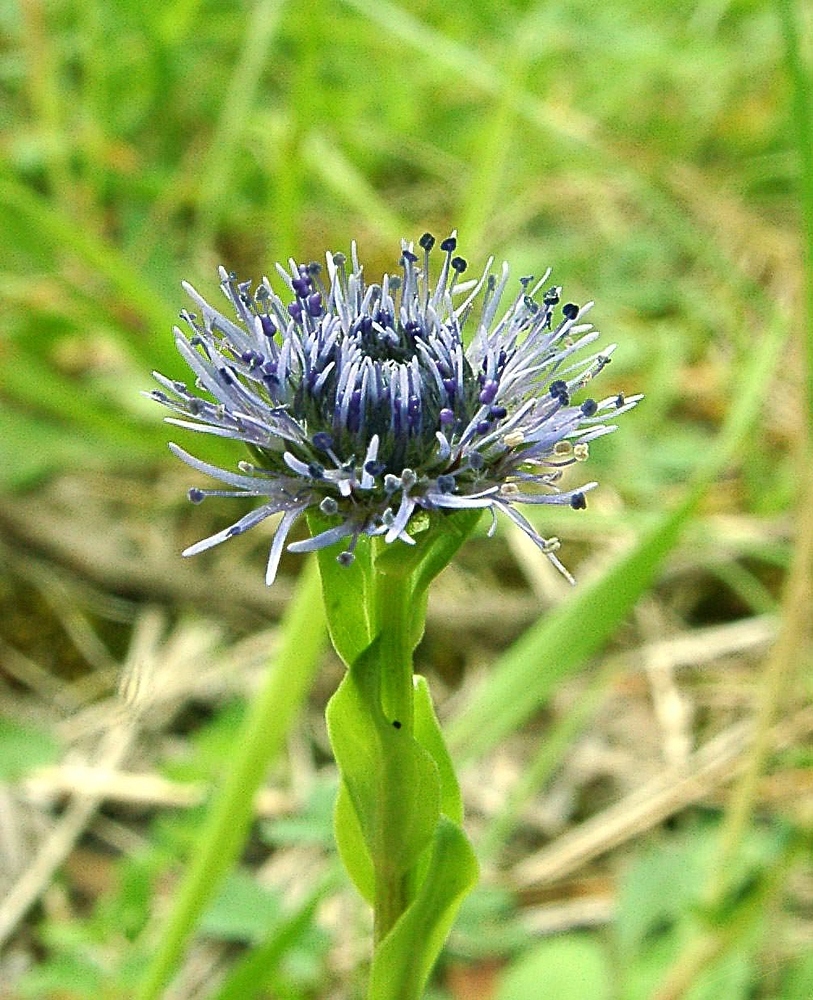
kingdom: Plantae
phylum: Tracheophyta
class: Magnoliopsida
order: Lamiales
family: Plantaginaceae
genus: Globularia
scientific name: Globularia bisnagarica
